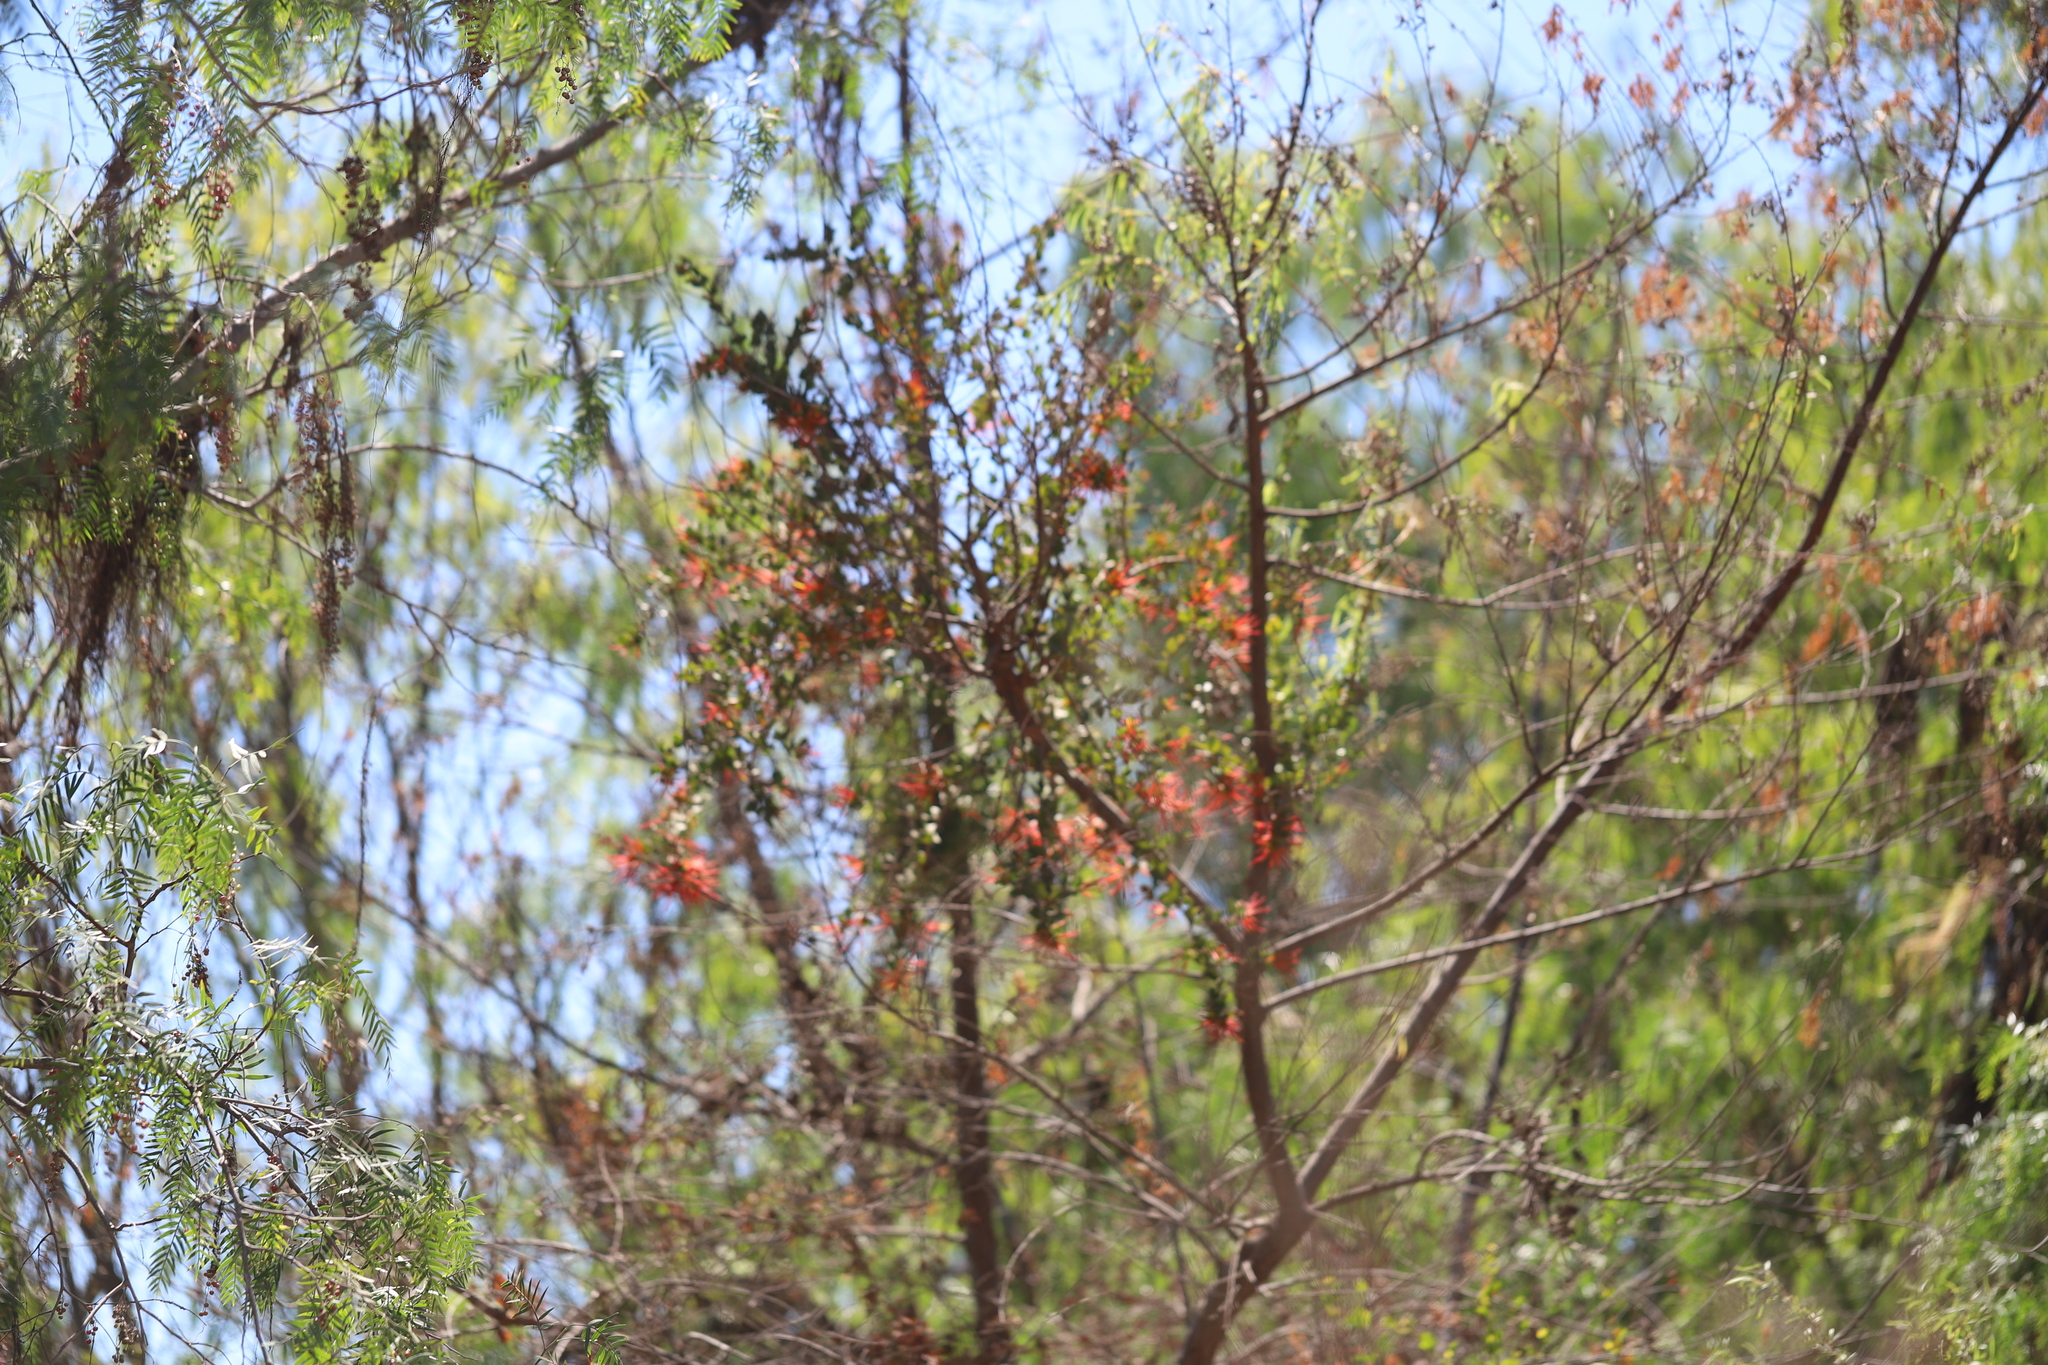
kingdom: Plantae
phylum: Tracheophyta
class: Magnoliopsida
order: Santalales
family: Loranthaceae
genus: Tristerix
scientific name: Tristerix corymbosus
